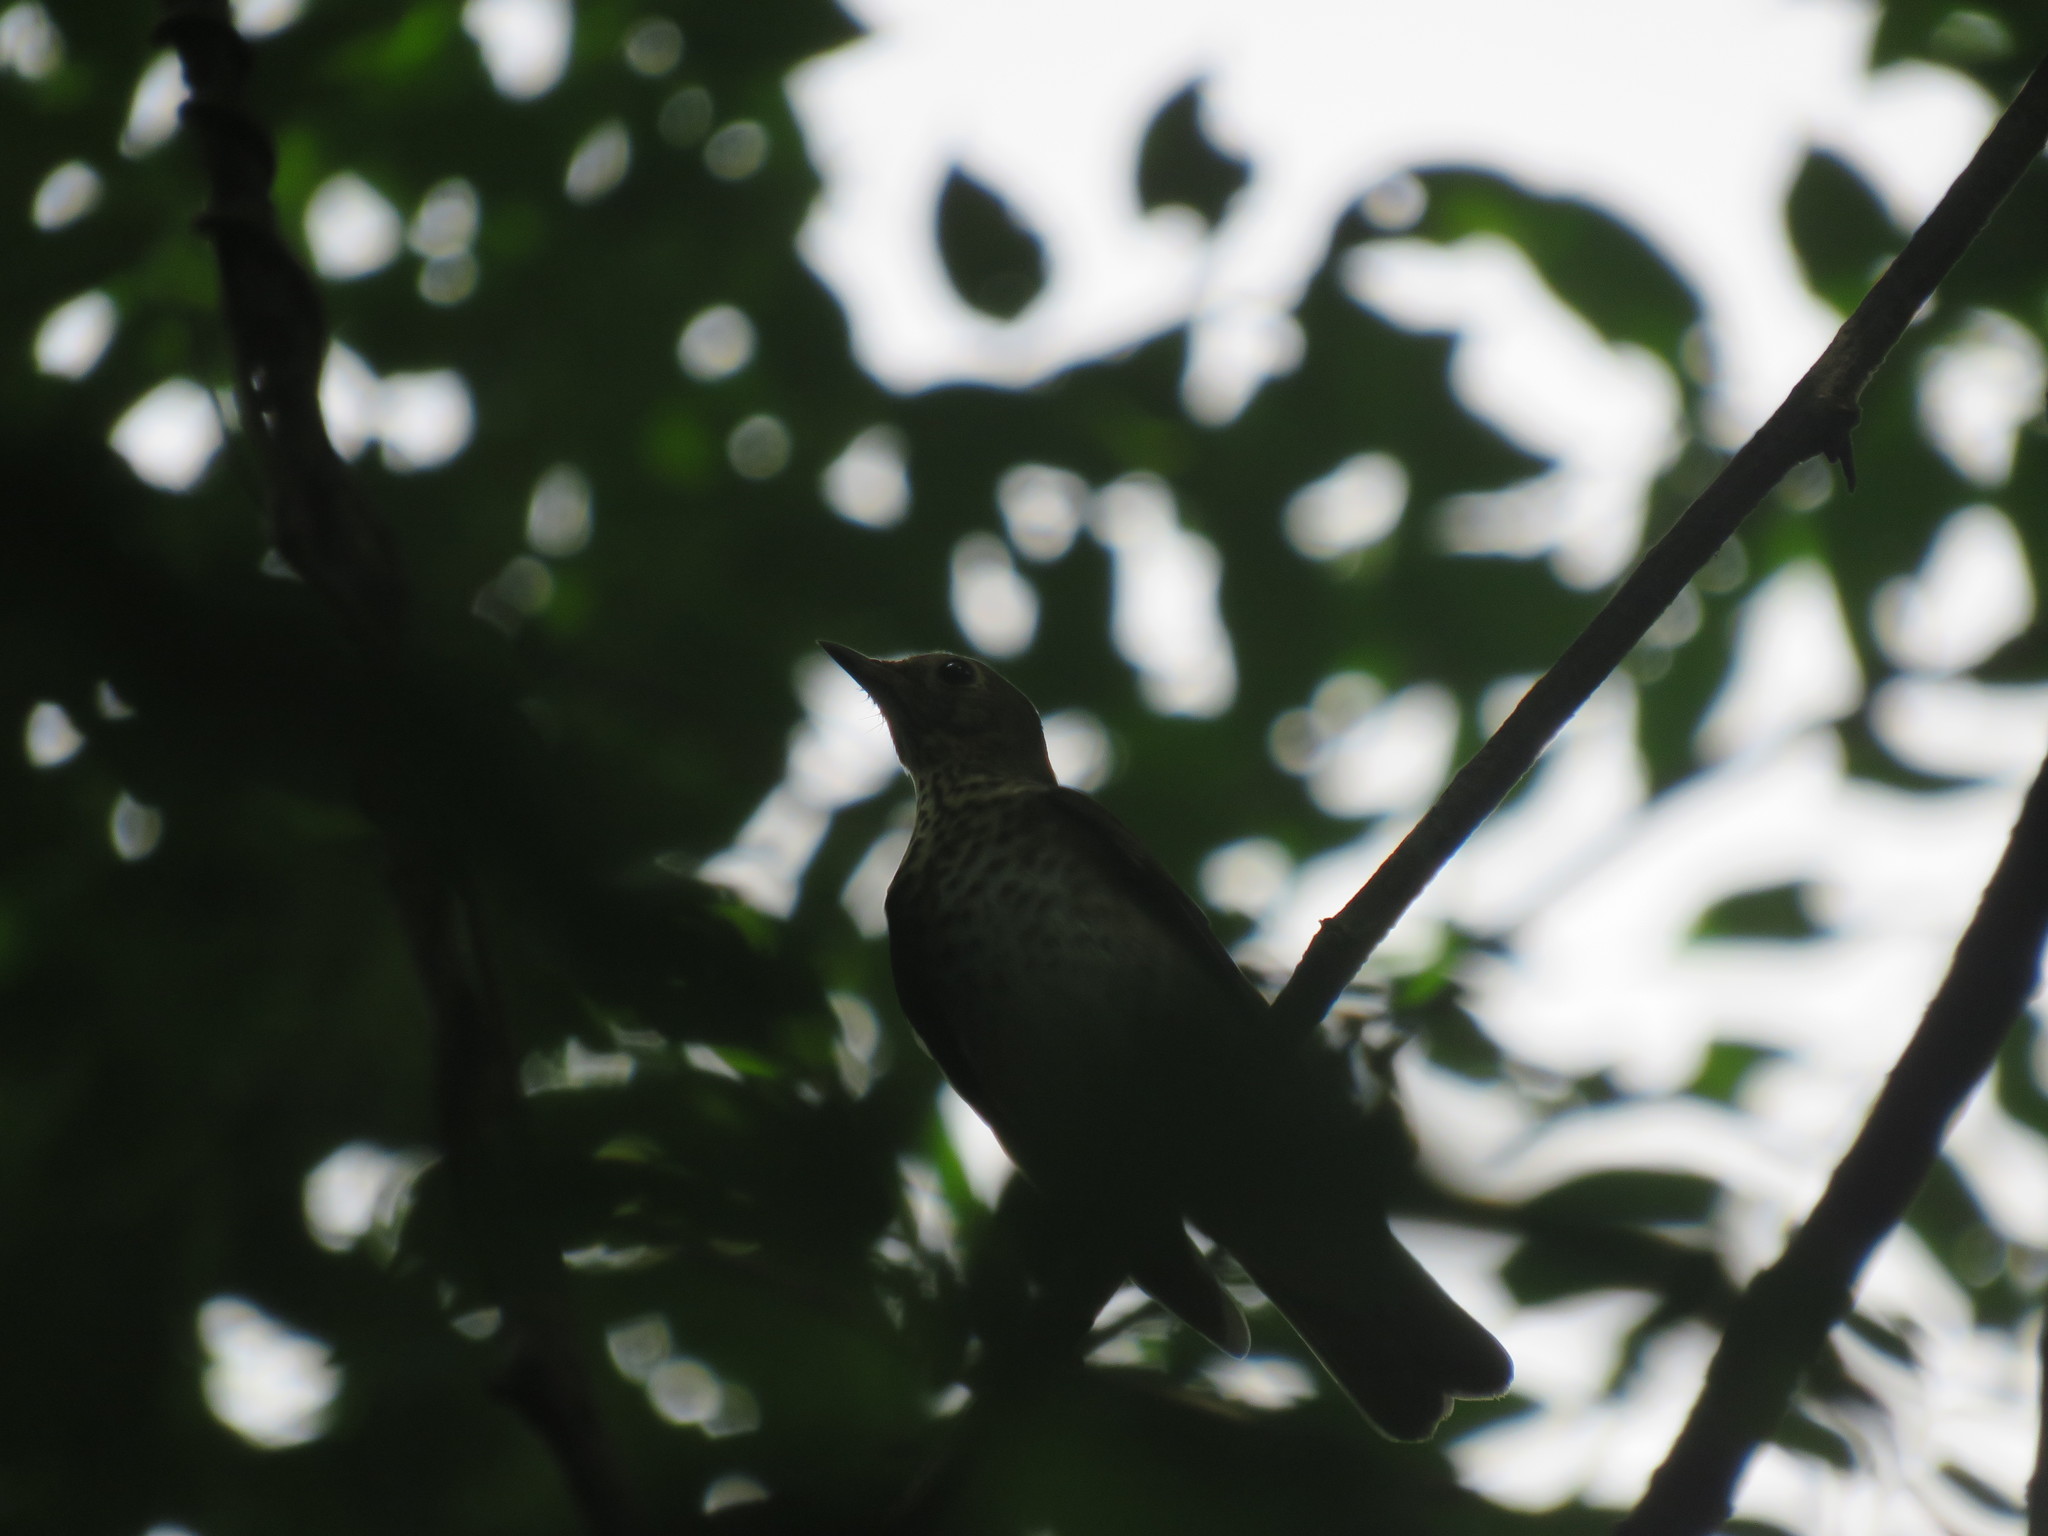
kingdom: Animalia
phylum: Chordata
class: Aves
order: Passeriformes
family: Turdidae
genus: Catharus
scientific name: Catharus ustulatus
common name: Swainson's thrush
